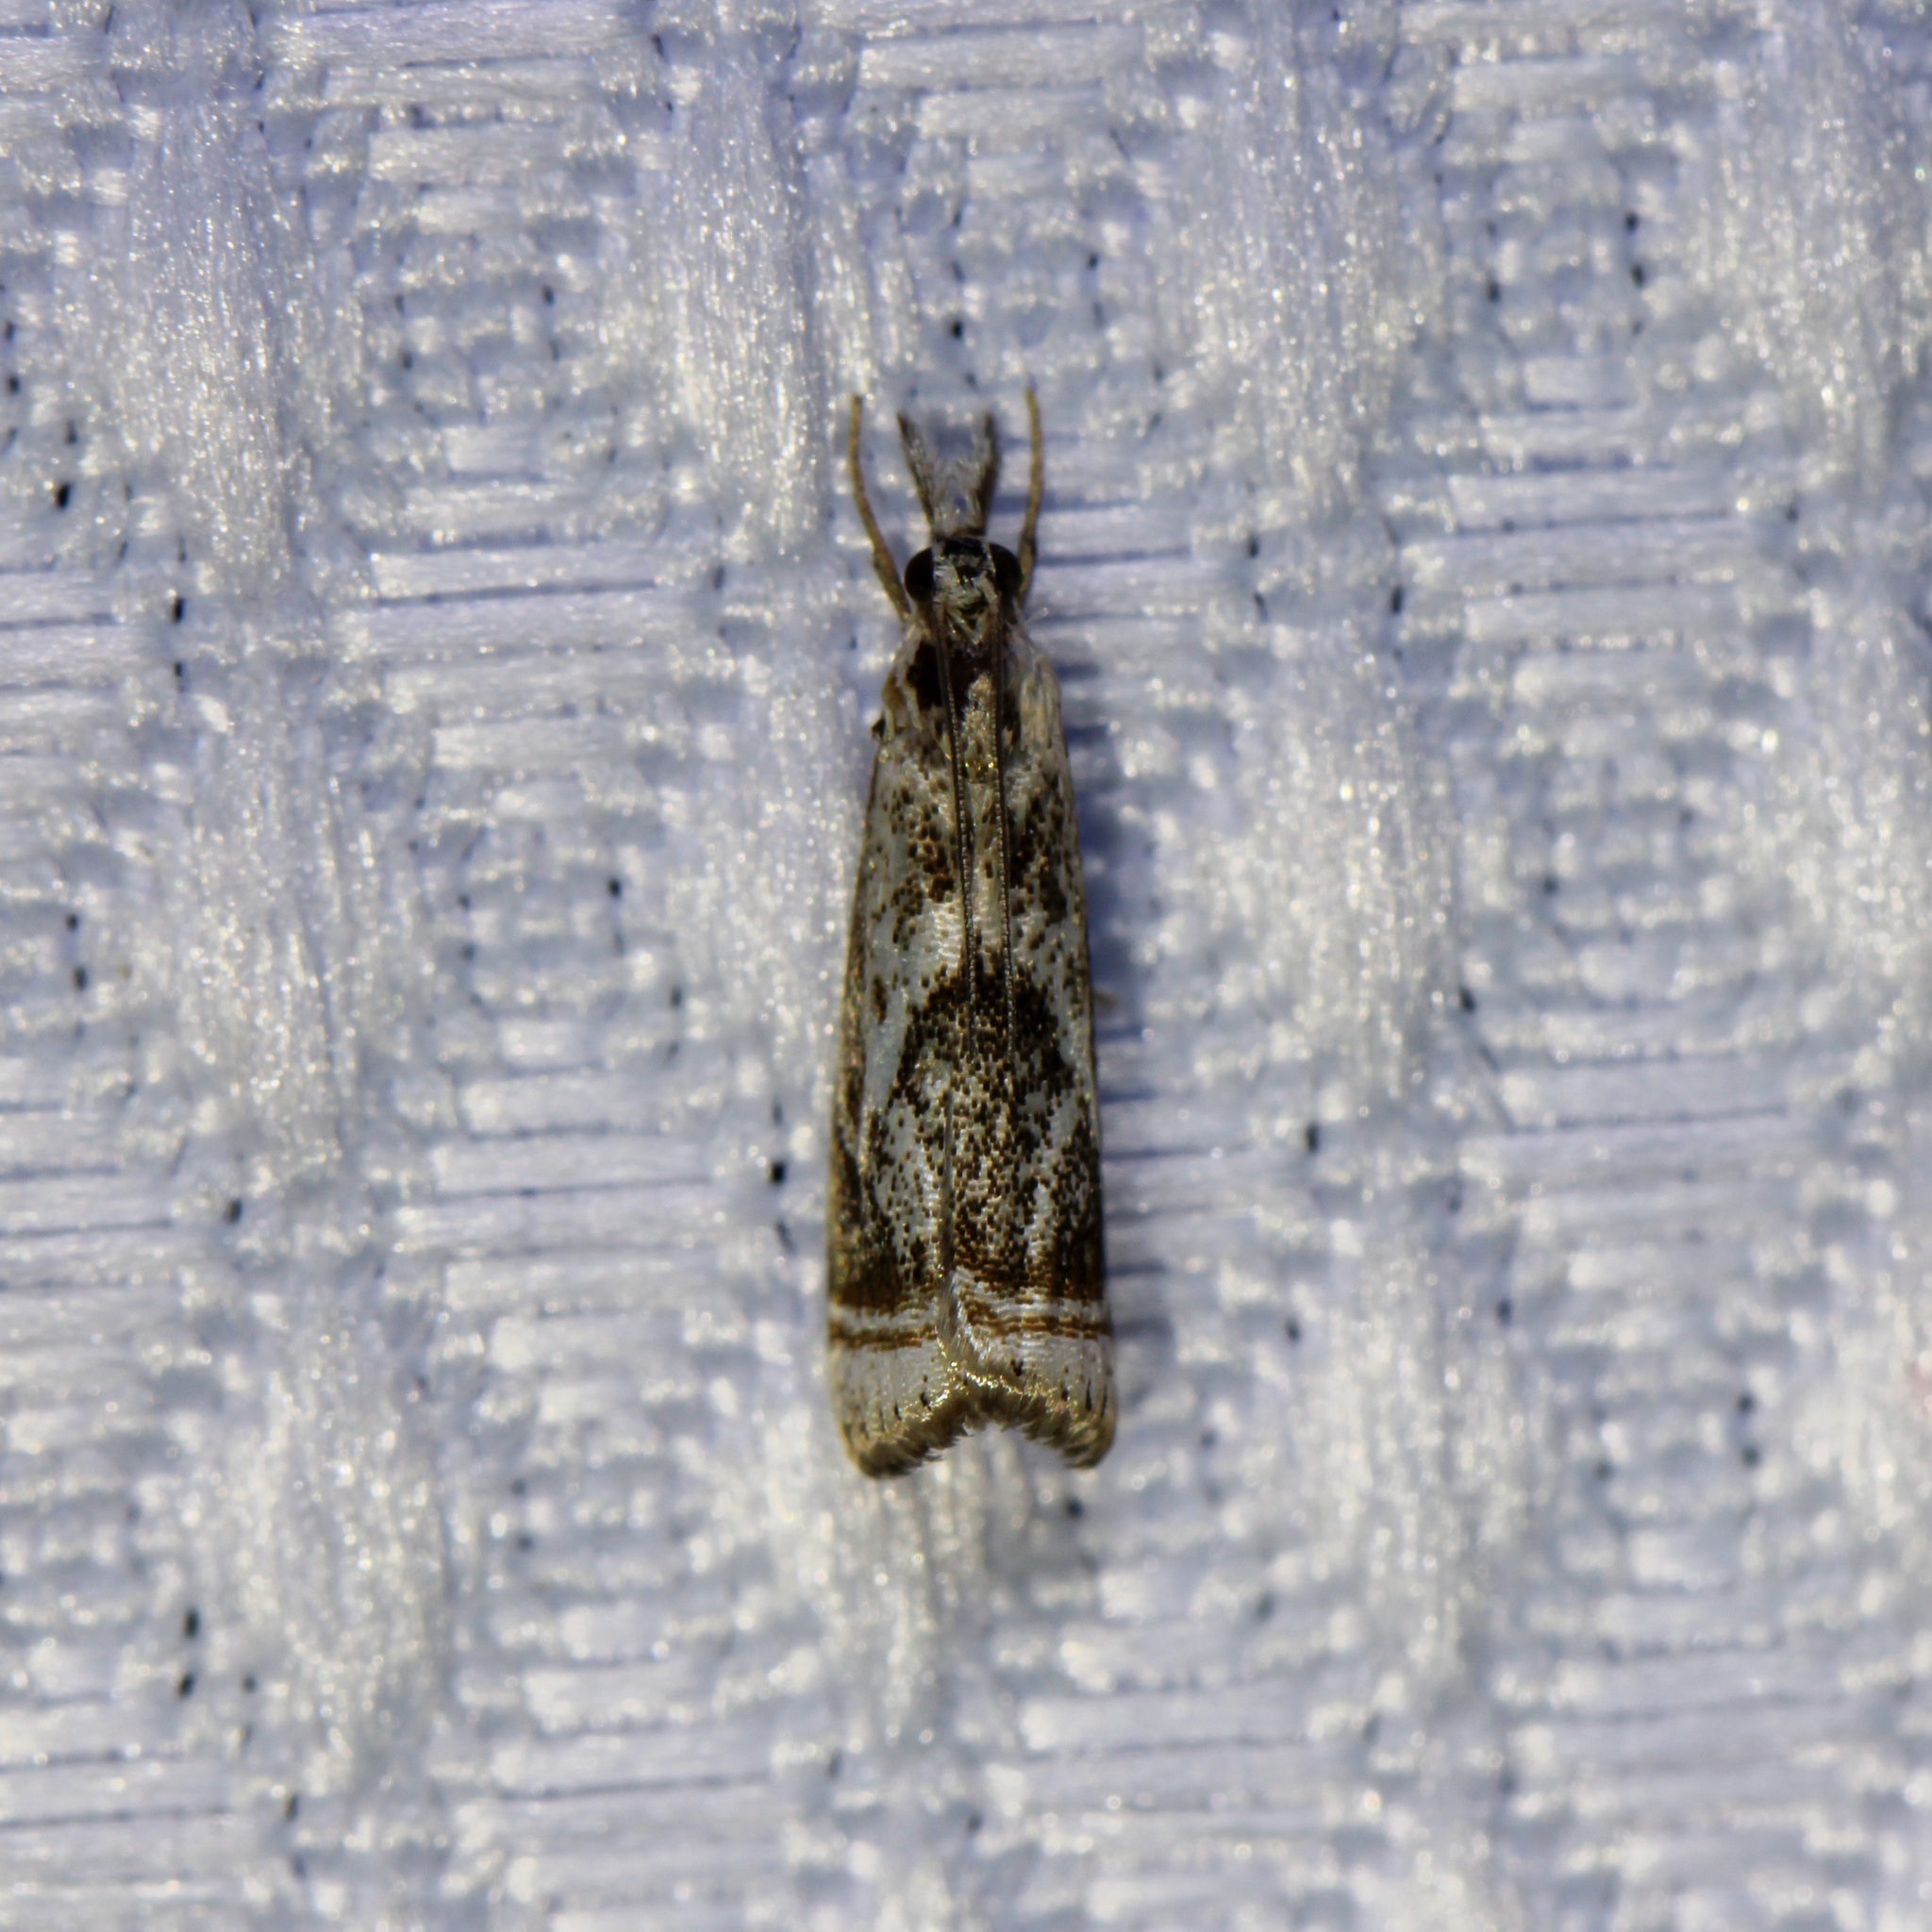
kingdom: Animalia
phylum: Arthropoda
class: Insecta
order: Lepidoptera
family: Crambidae
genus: Microcrambus
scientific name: Microcrambus elegans
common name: Elegant grass-veneer
